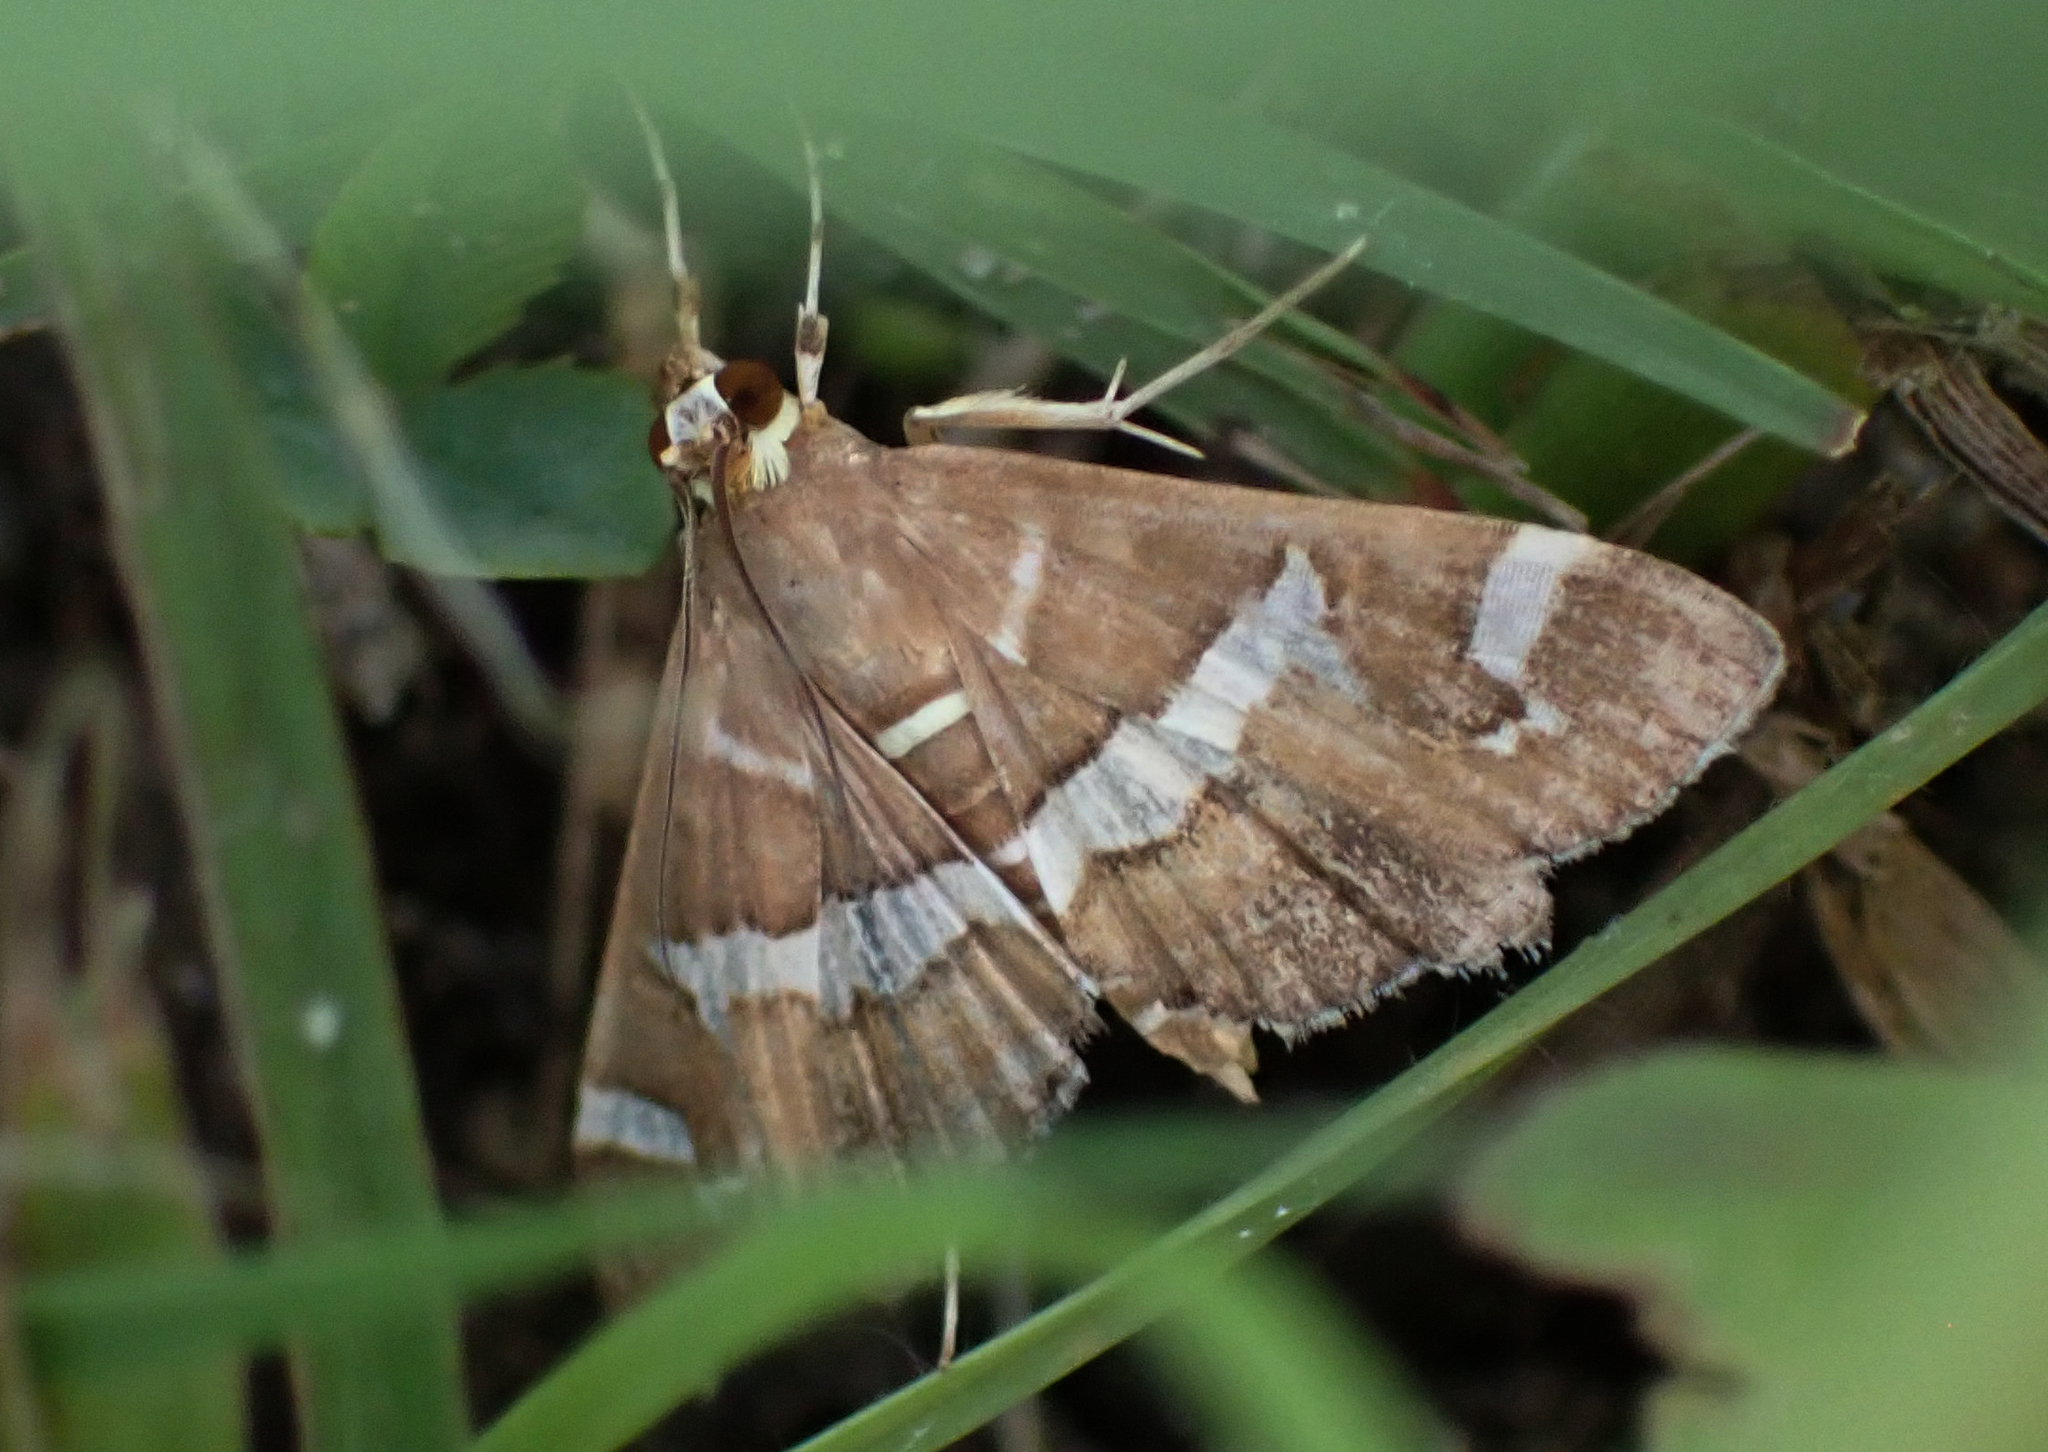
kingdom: Animalia
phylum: Arthropoda
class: Insecta
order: Lepidoptera
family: Crambidae
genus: Spoladea
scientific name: Spoladea recurvalis
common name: Beet webworm moth
